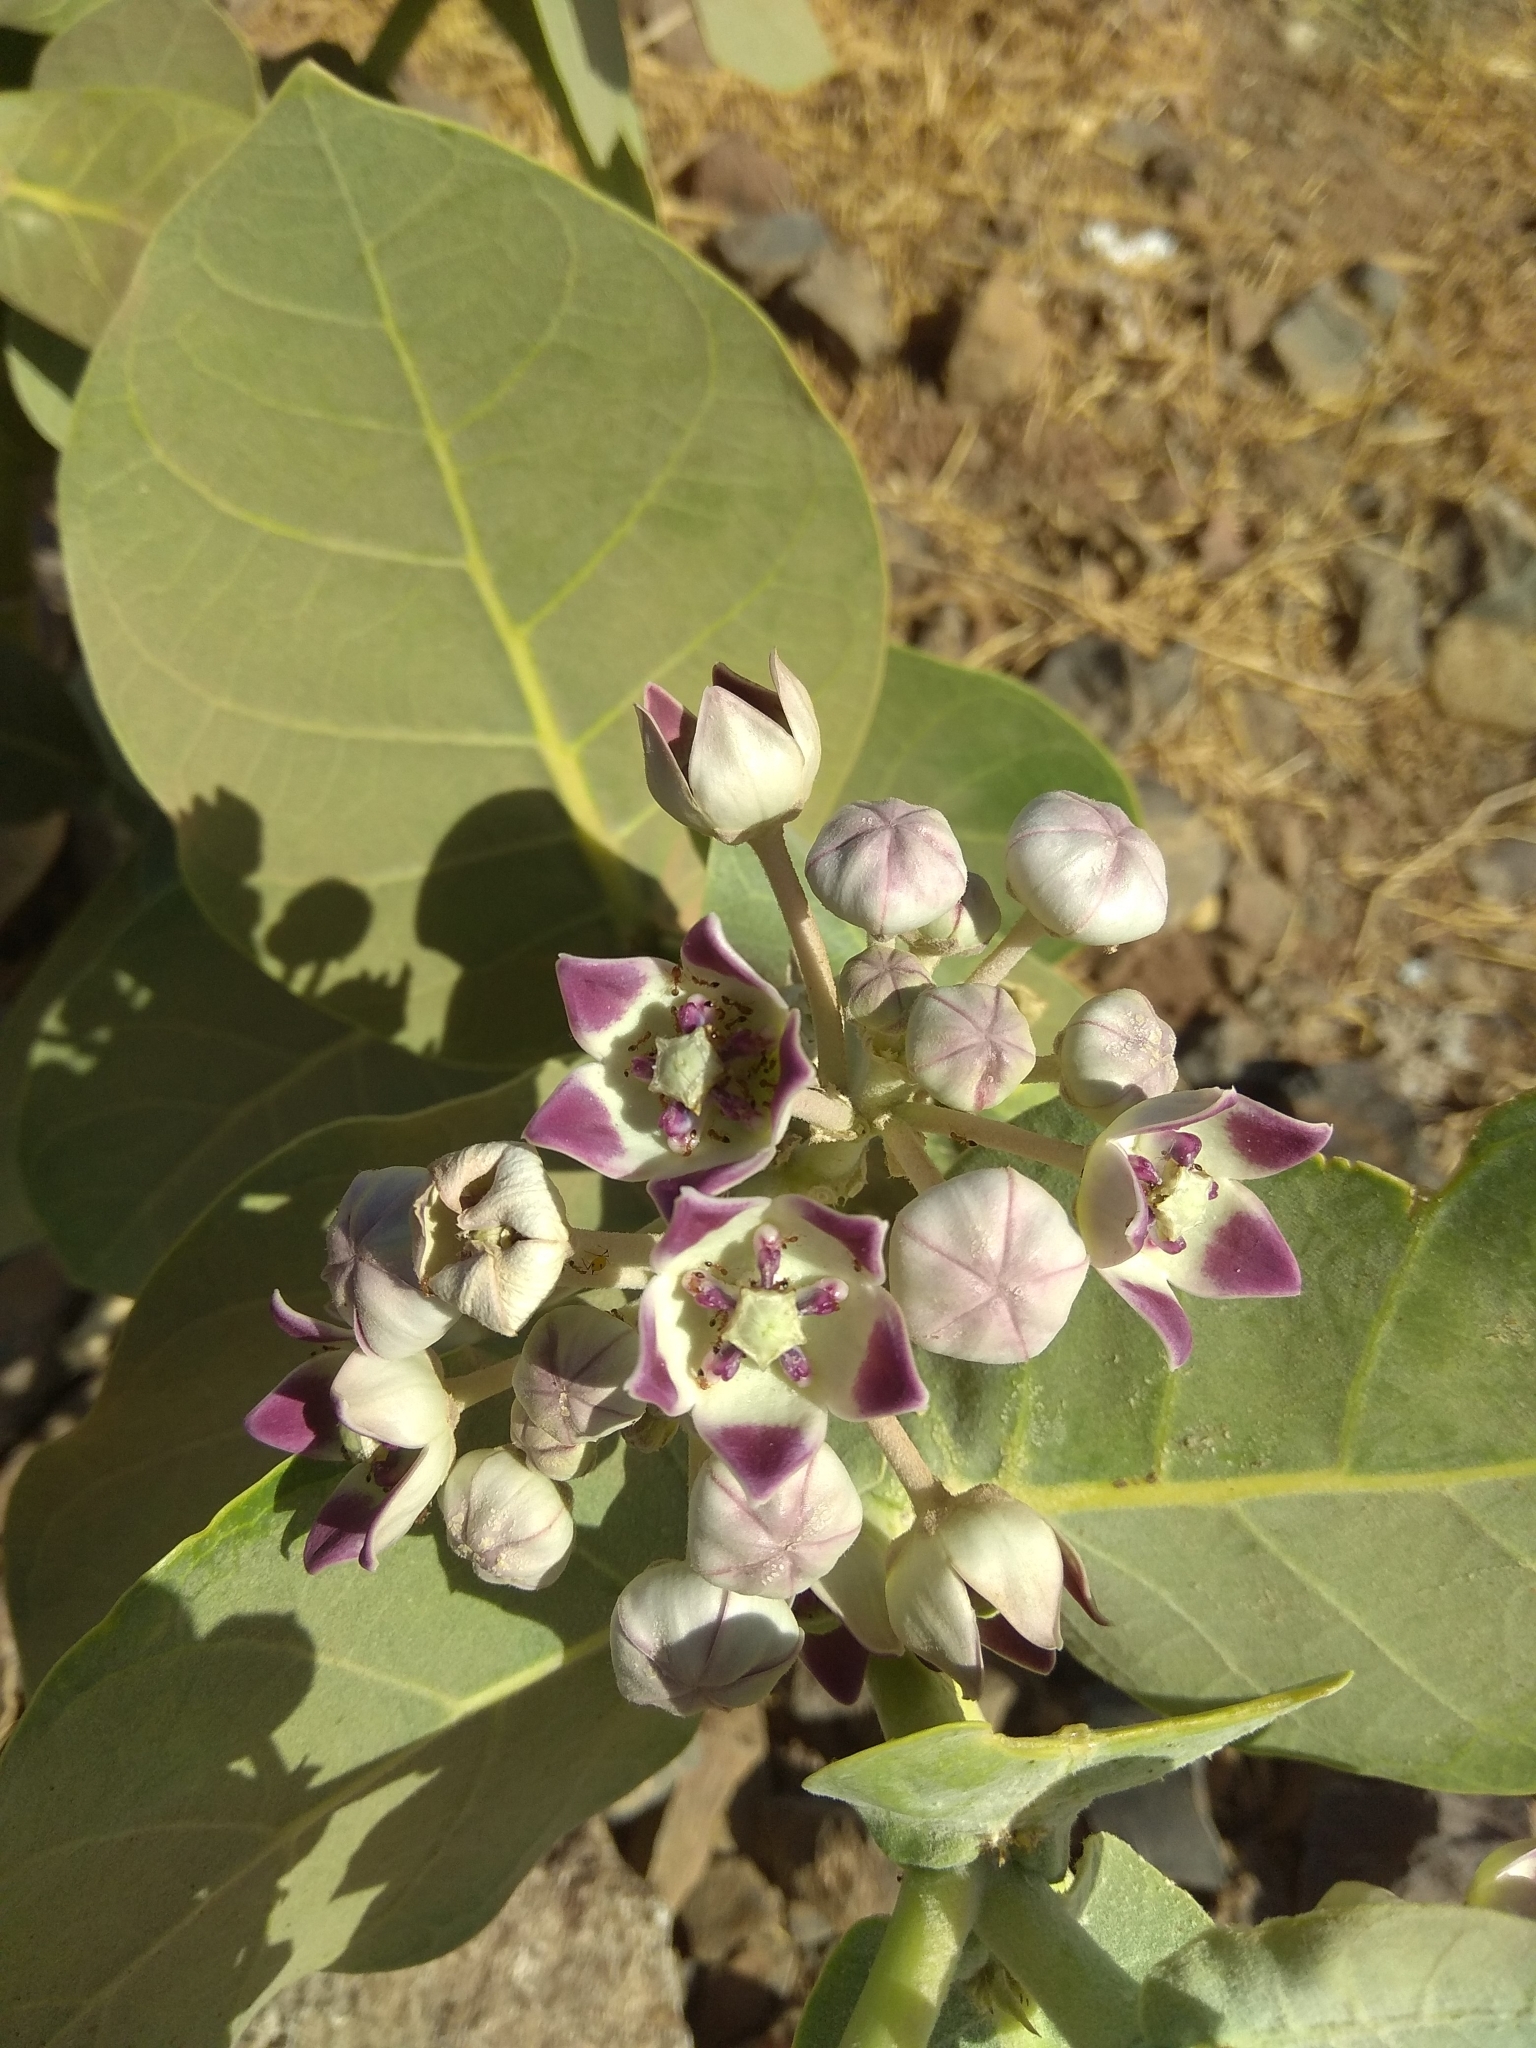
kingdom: Plantae
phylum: Tracheophyta
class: Magnoliopsida
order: Gentianales
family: Apocynaceae
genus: Calotropis
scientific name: Calotropis procera
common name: Roostertree
